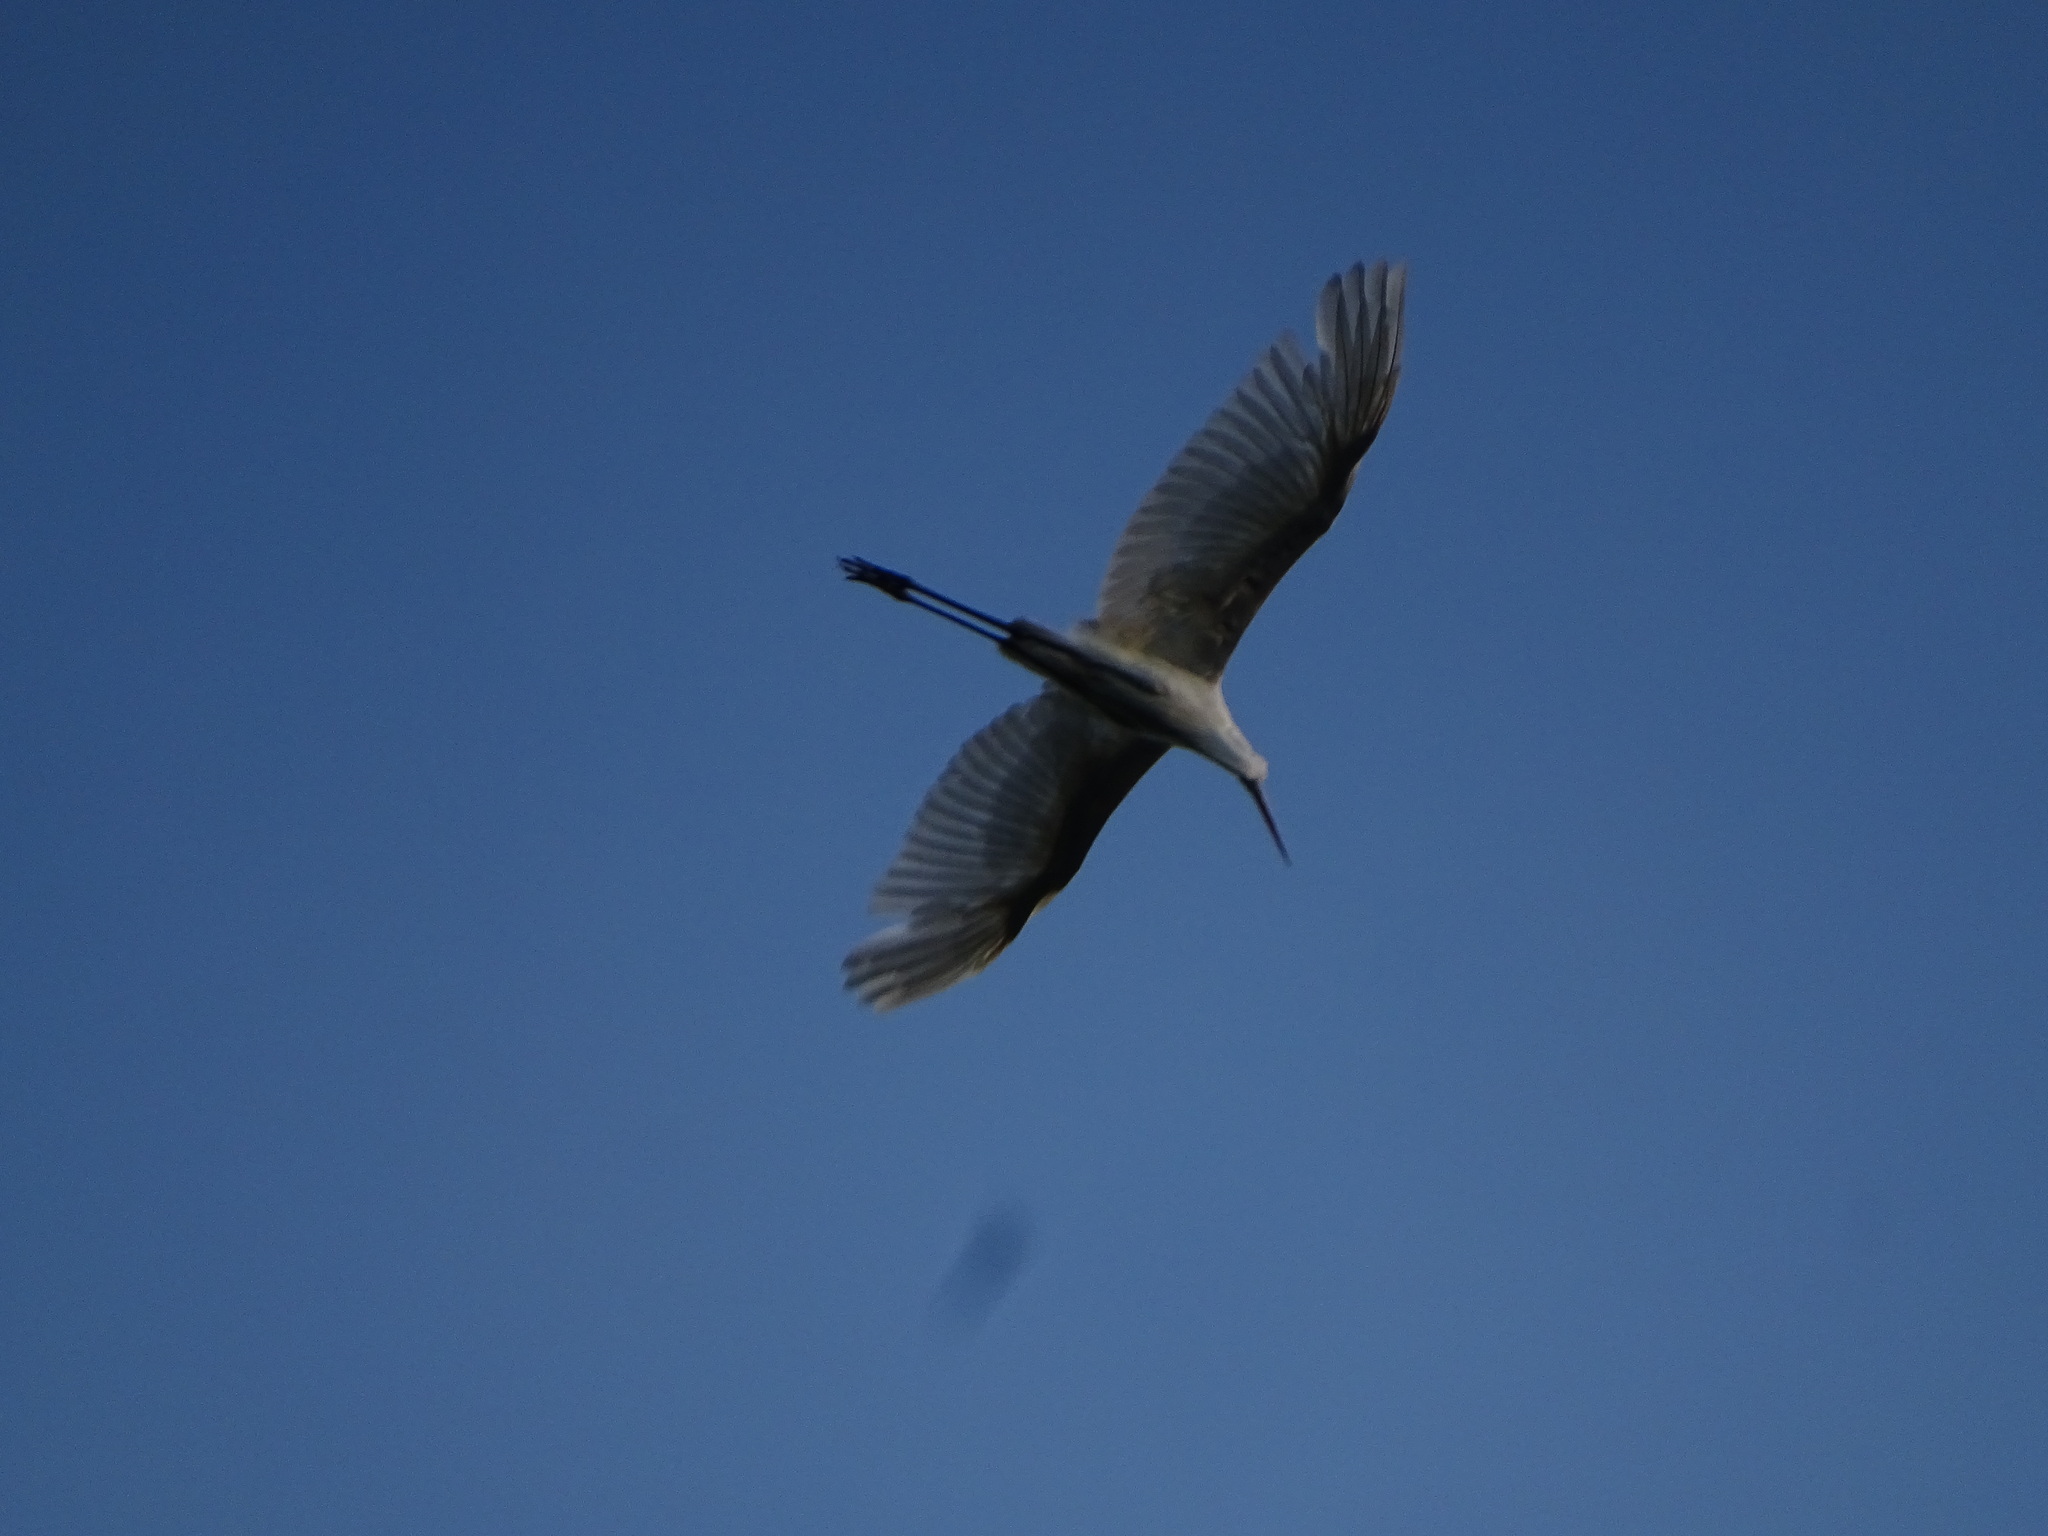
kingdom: Animalia
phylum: Chordata
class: Aves
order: Pelecaniformes
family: Ardeidae
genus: Ardea
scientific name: Ardea alba
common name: Great egret
